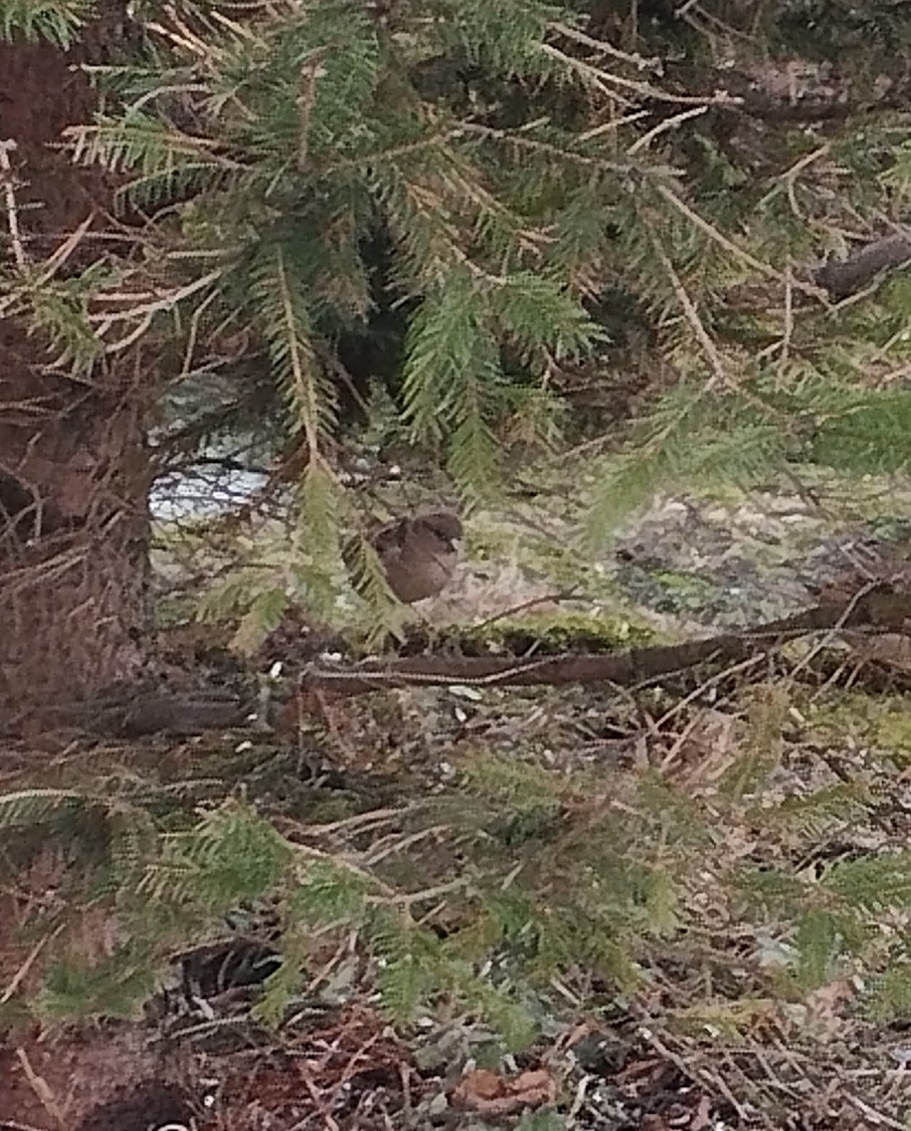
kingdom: Animalia
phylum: Chordata
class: Aves
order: Passeriformes
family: Passeridae
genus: Passer
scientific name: Passer domesticus
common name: House sparrow
